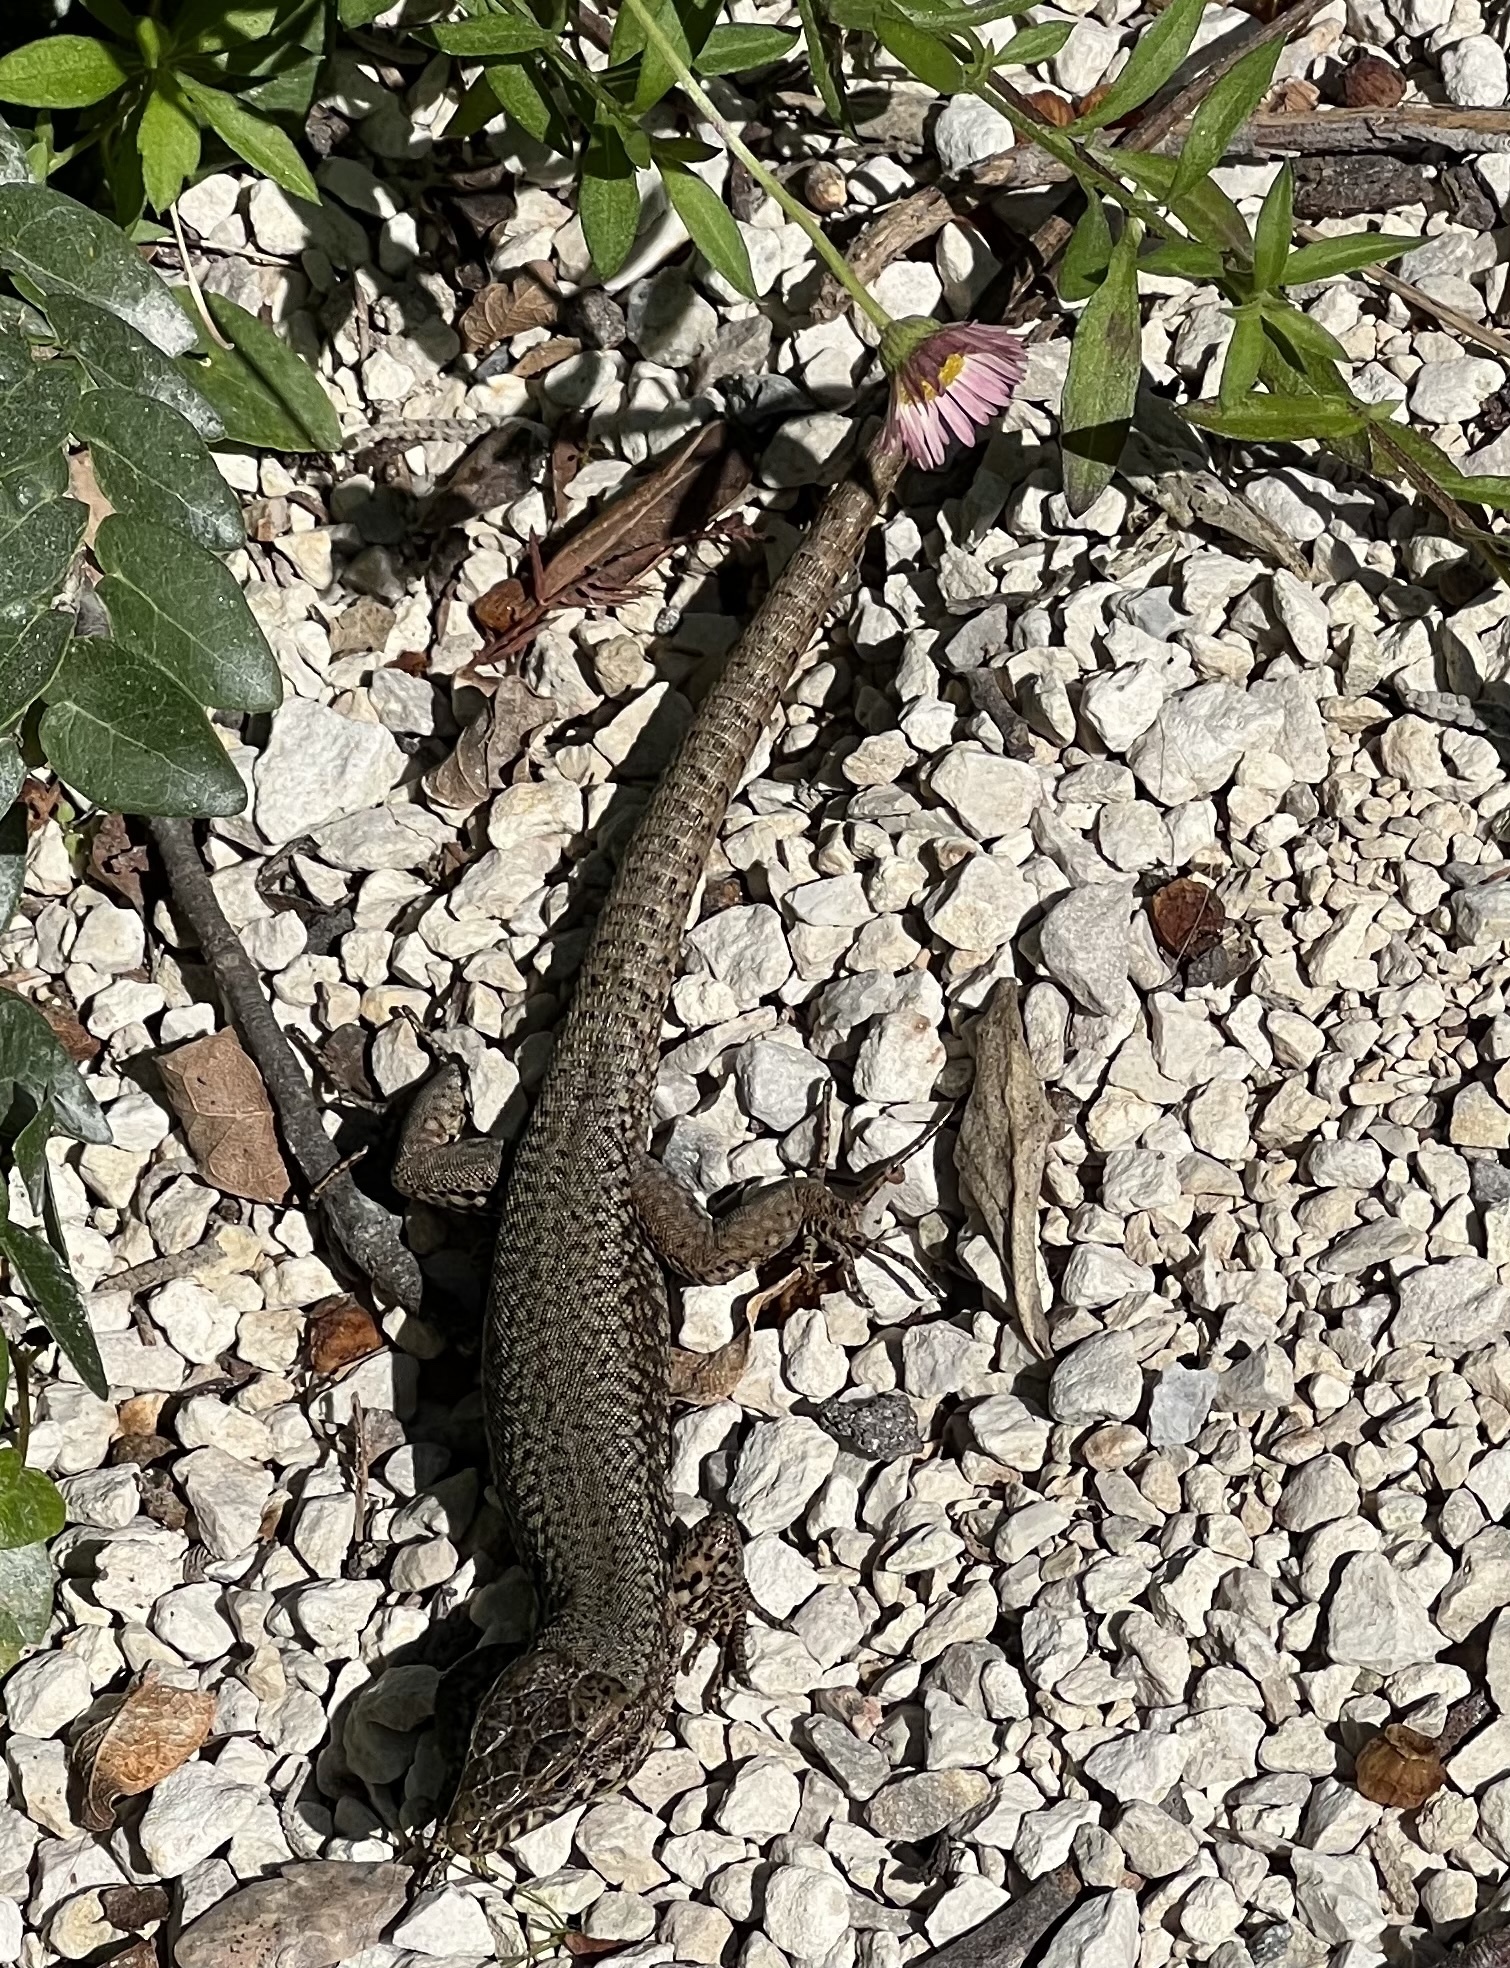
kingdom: Animalia
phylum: Chordata
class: Squamata
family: Lacertidae
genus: Podarcis
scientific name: Podarcis muralis
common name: Common wall lizard
